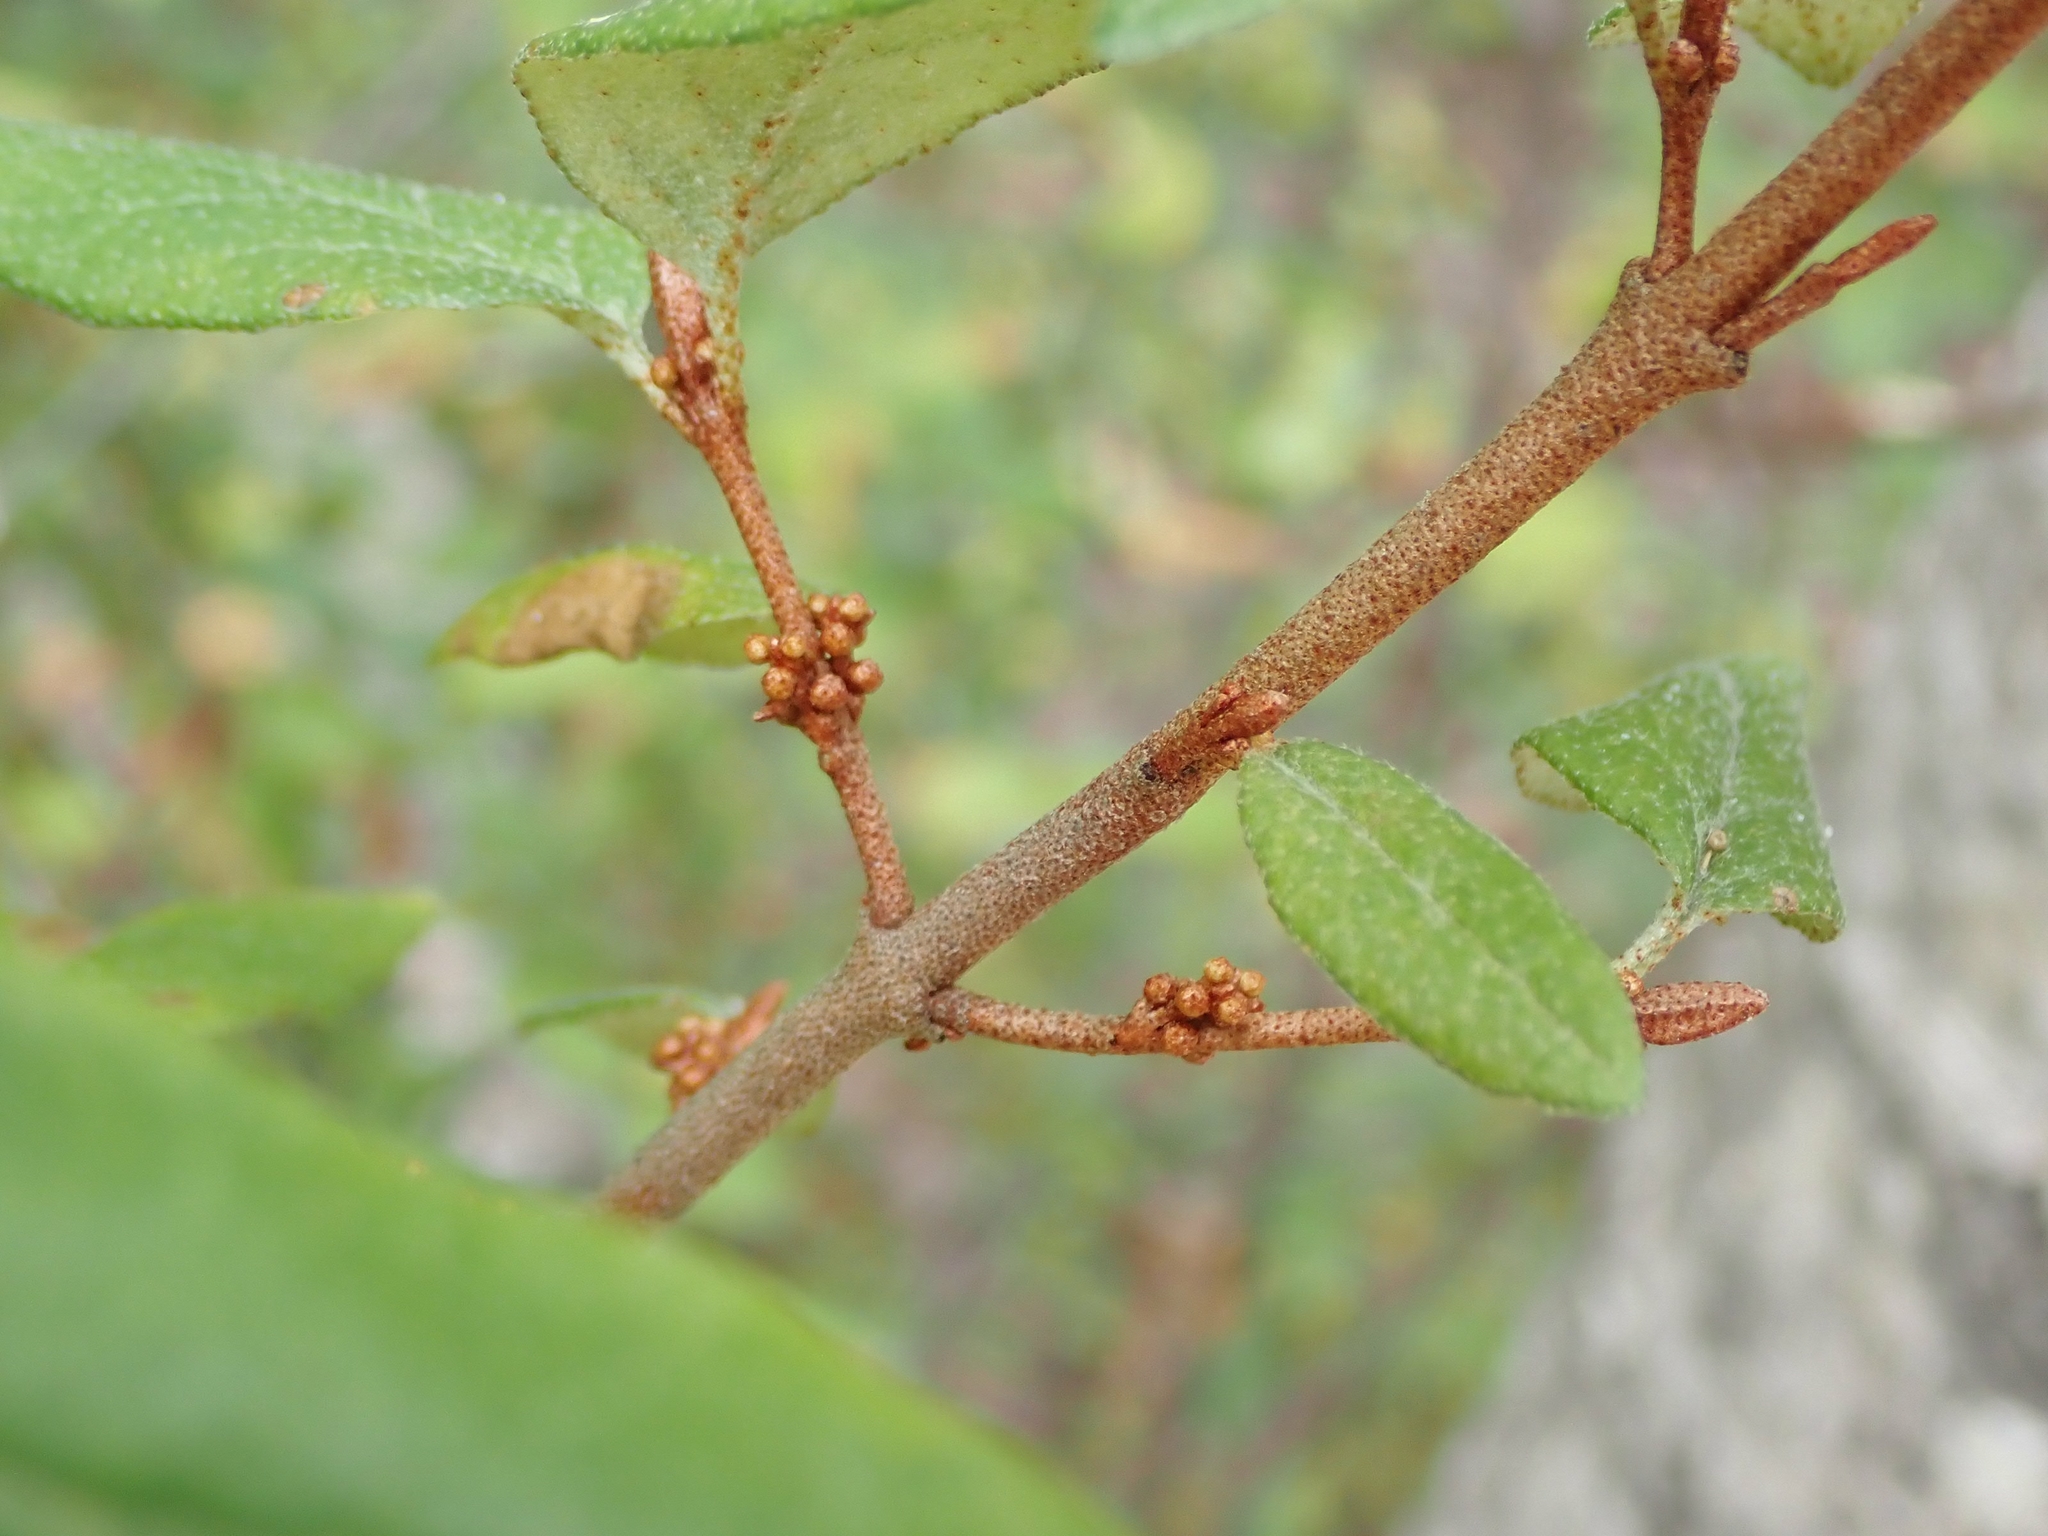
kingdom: Plantae
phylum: Tracheophyta
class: Magnoliopsida
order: Rosales
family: Elaeagnaceae
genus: Shepherdia
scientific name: Shepherdia canadensis
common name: Soapberry
